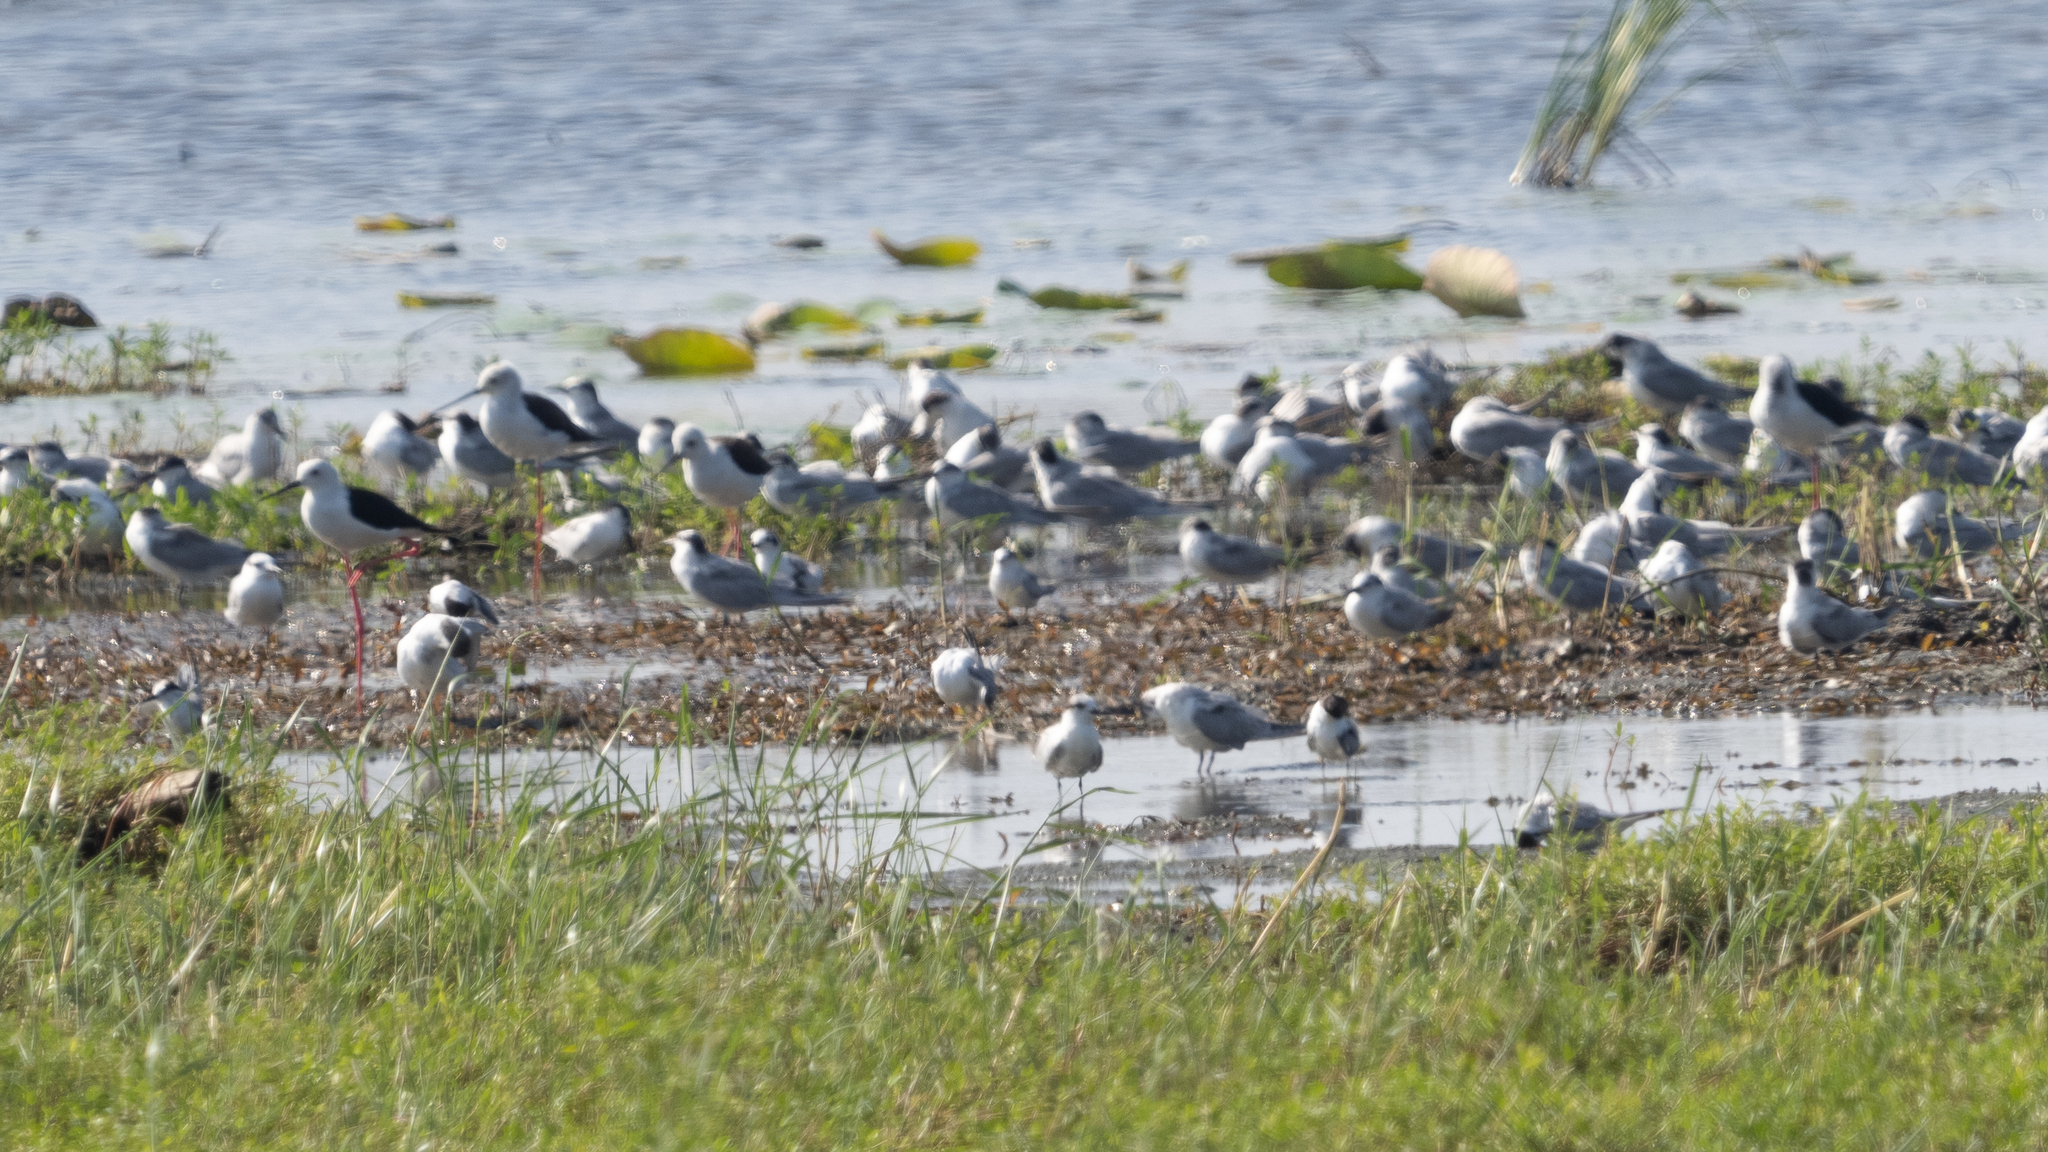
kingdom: Animalia
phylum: Chordata
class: Aves
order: Charadriiformes
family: Laridae
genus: Sternula
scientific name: Sternula albifrons
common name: Little tern
